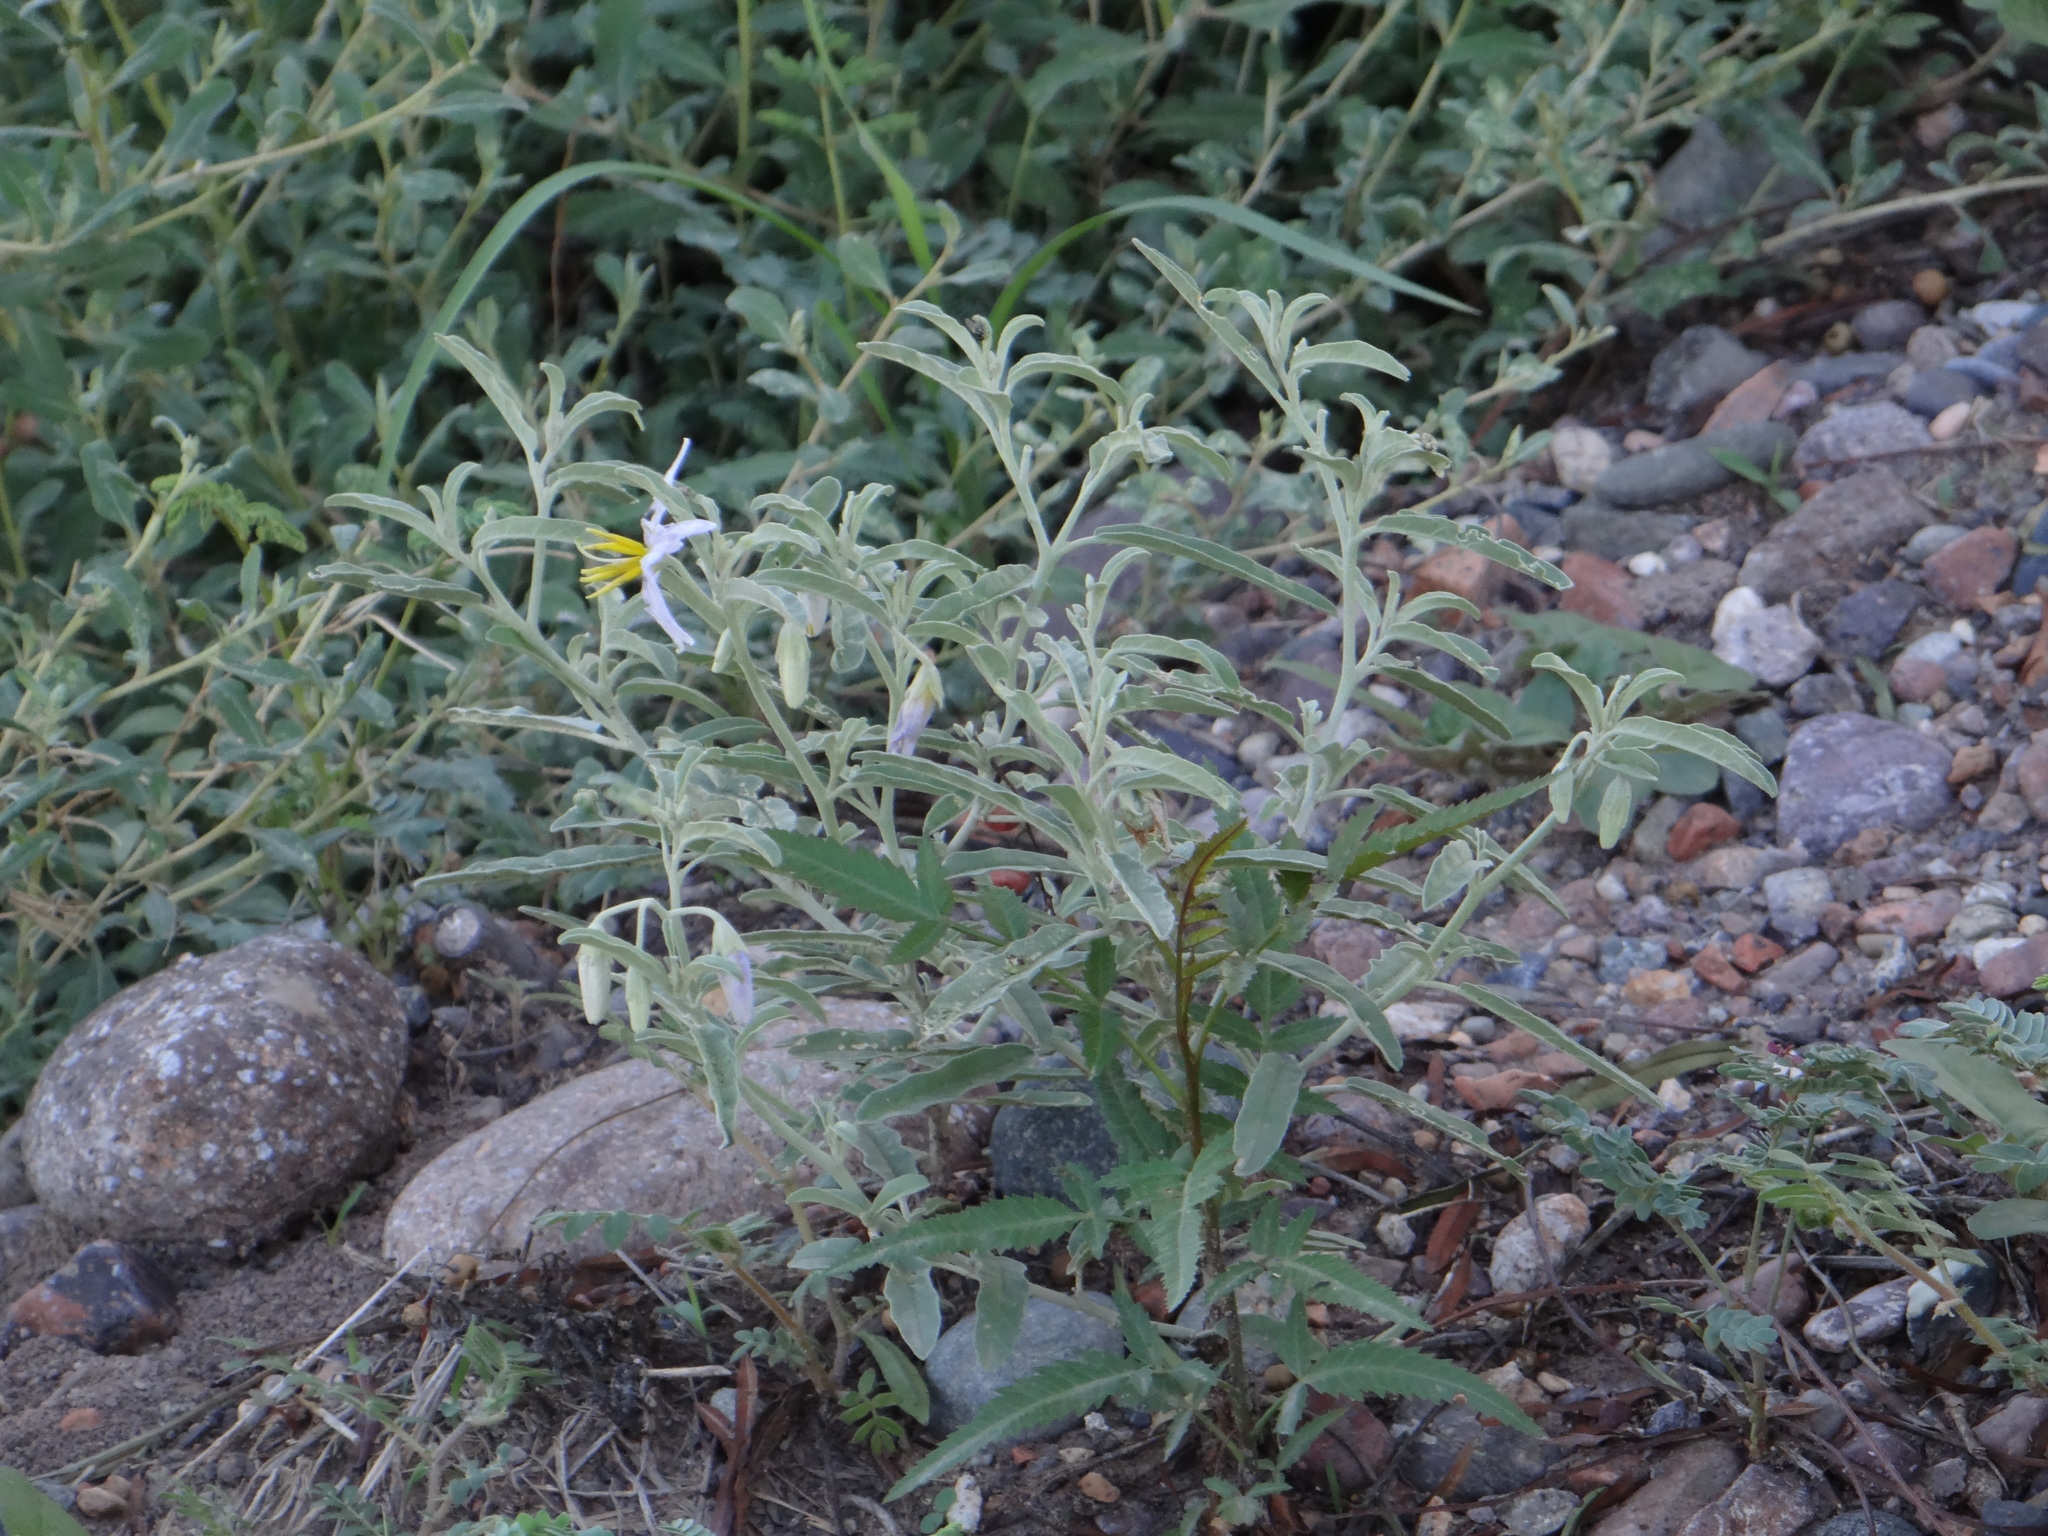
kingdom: Plantae
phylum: Tracheophyta
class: Magnoliopsida
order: Solanales
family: Solanaceae
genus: Solanum
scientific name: Solanum elaeagnifolium
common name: Silverleaf nightshade
